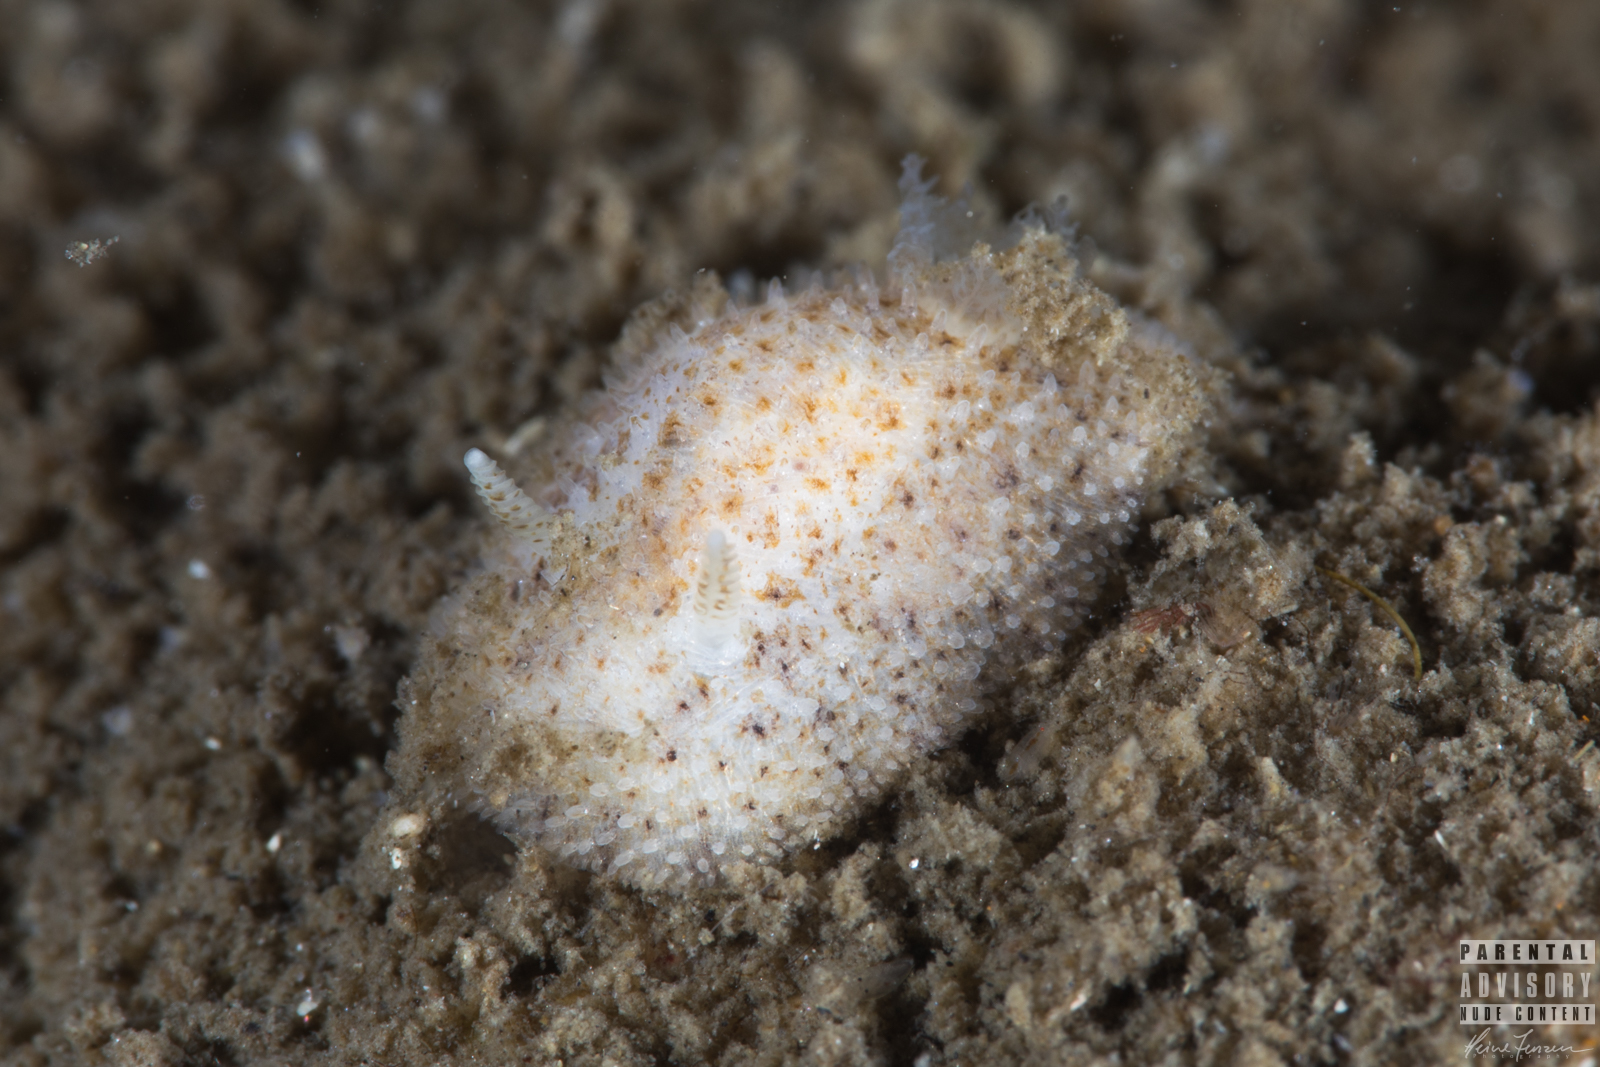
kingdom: Animalia
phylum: Mollusca
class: Gastropoda
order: Nudibranchia
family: Onchidorididae
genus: Idaliadoris
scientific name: Idaliadoris depressa
